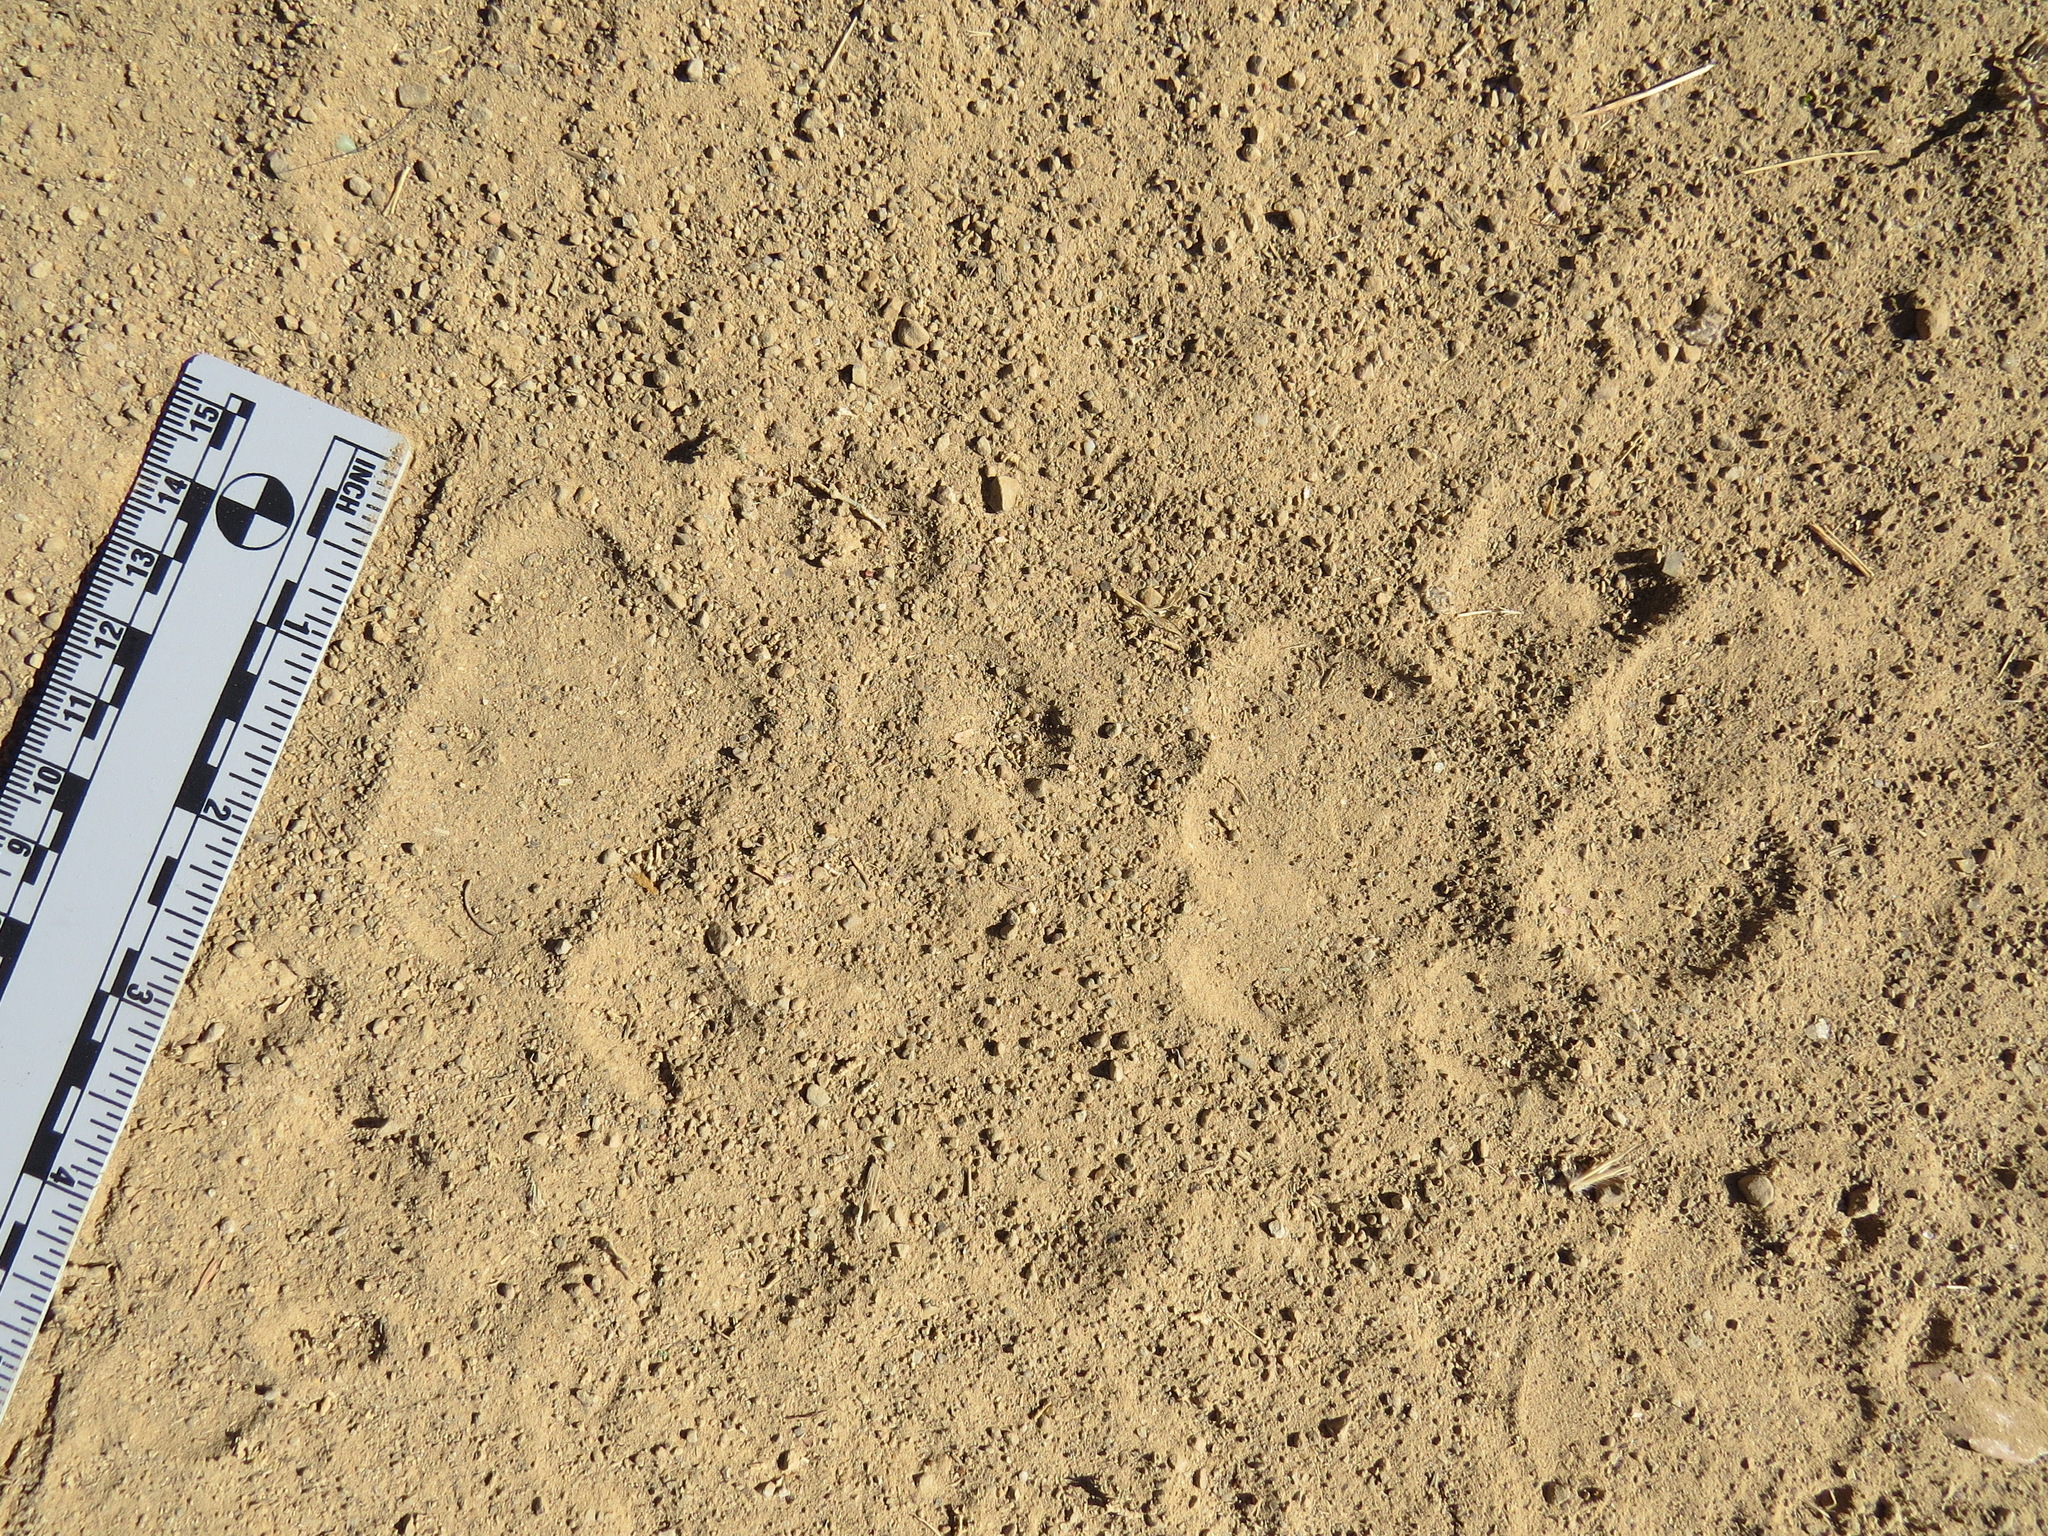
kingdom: Animalia
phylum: Chordata
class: Mammalia
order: Carnivora
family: Felidae
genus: Puma
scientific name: Puma concolor
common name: Puma
